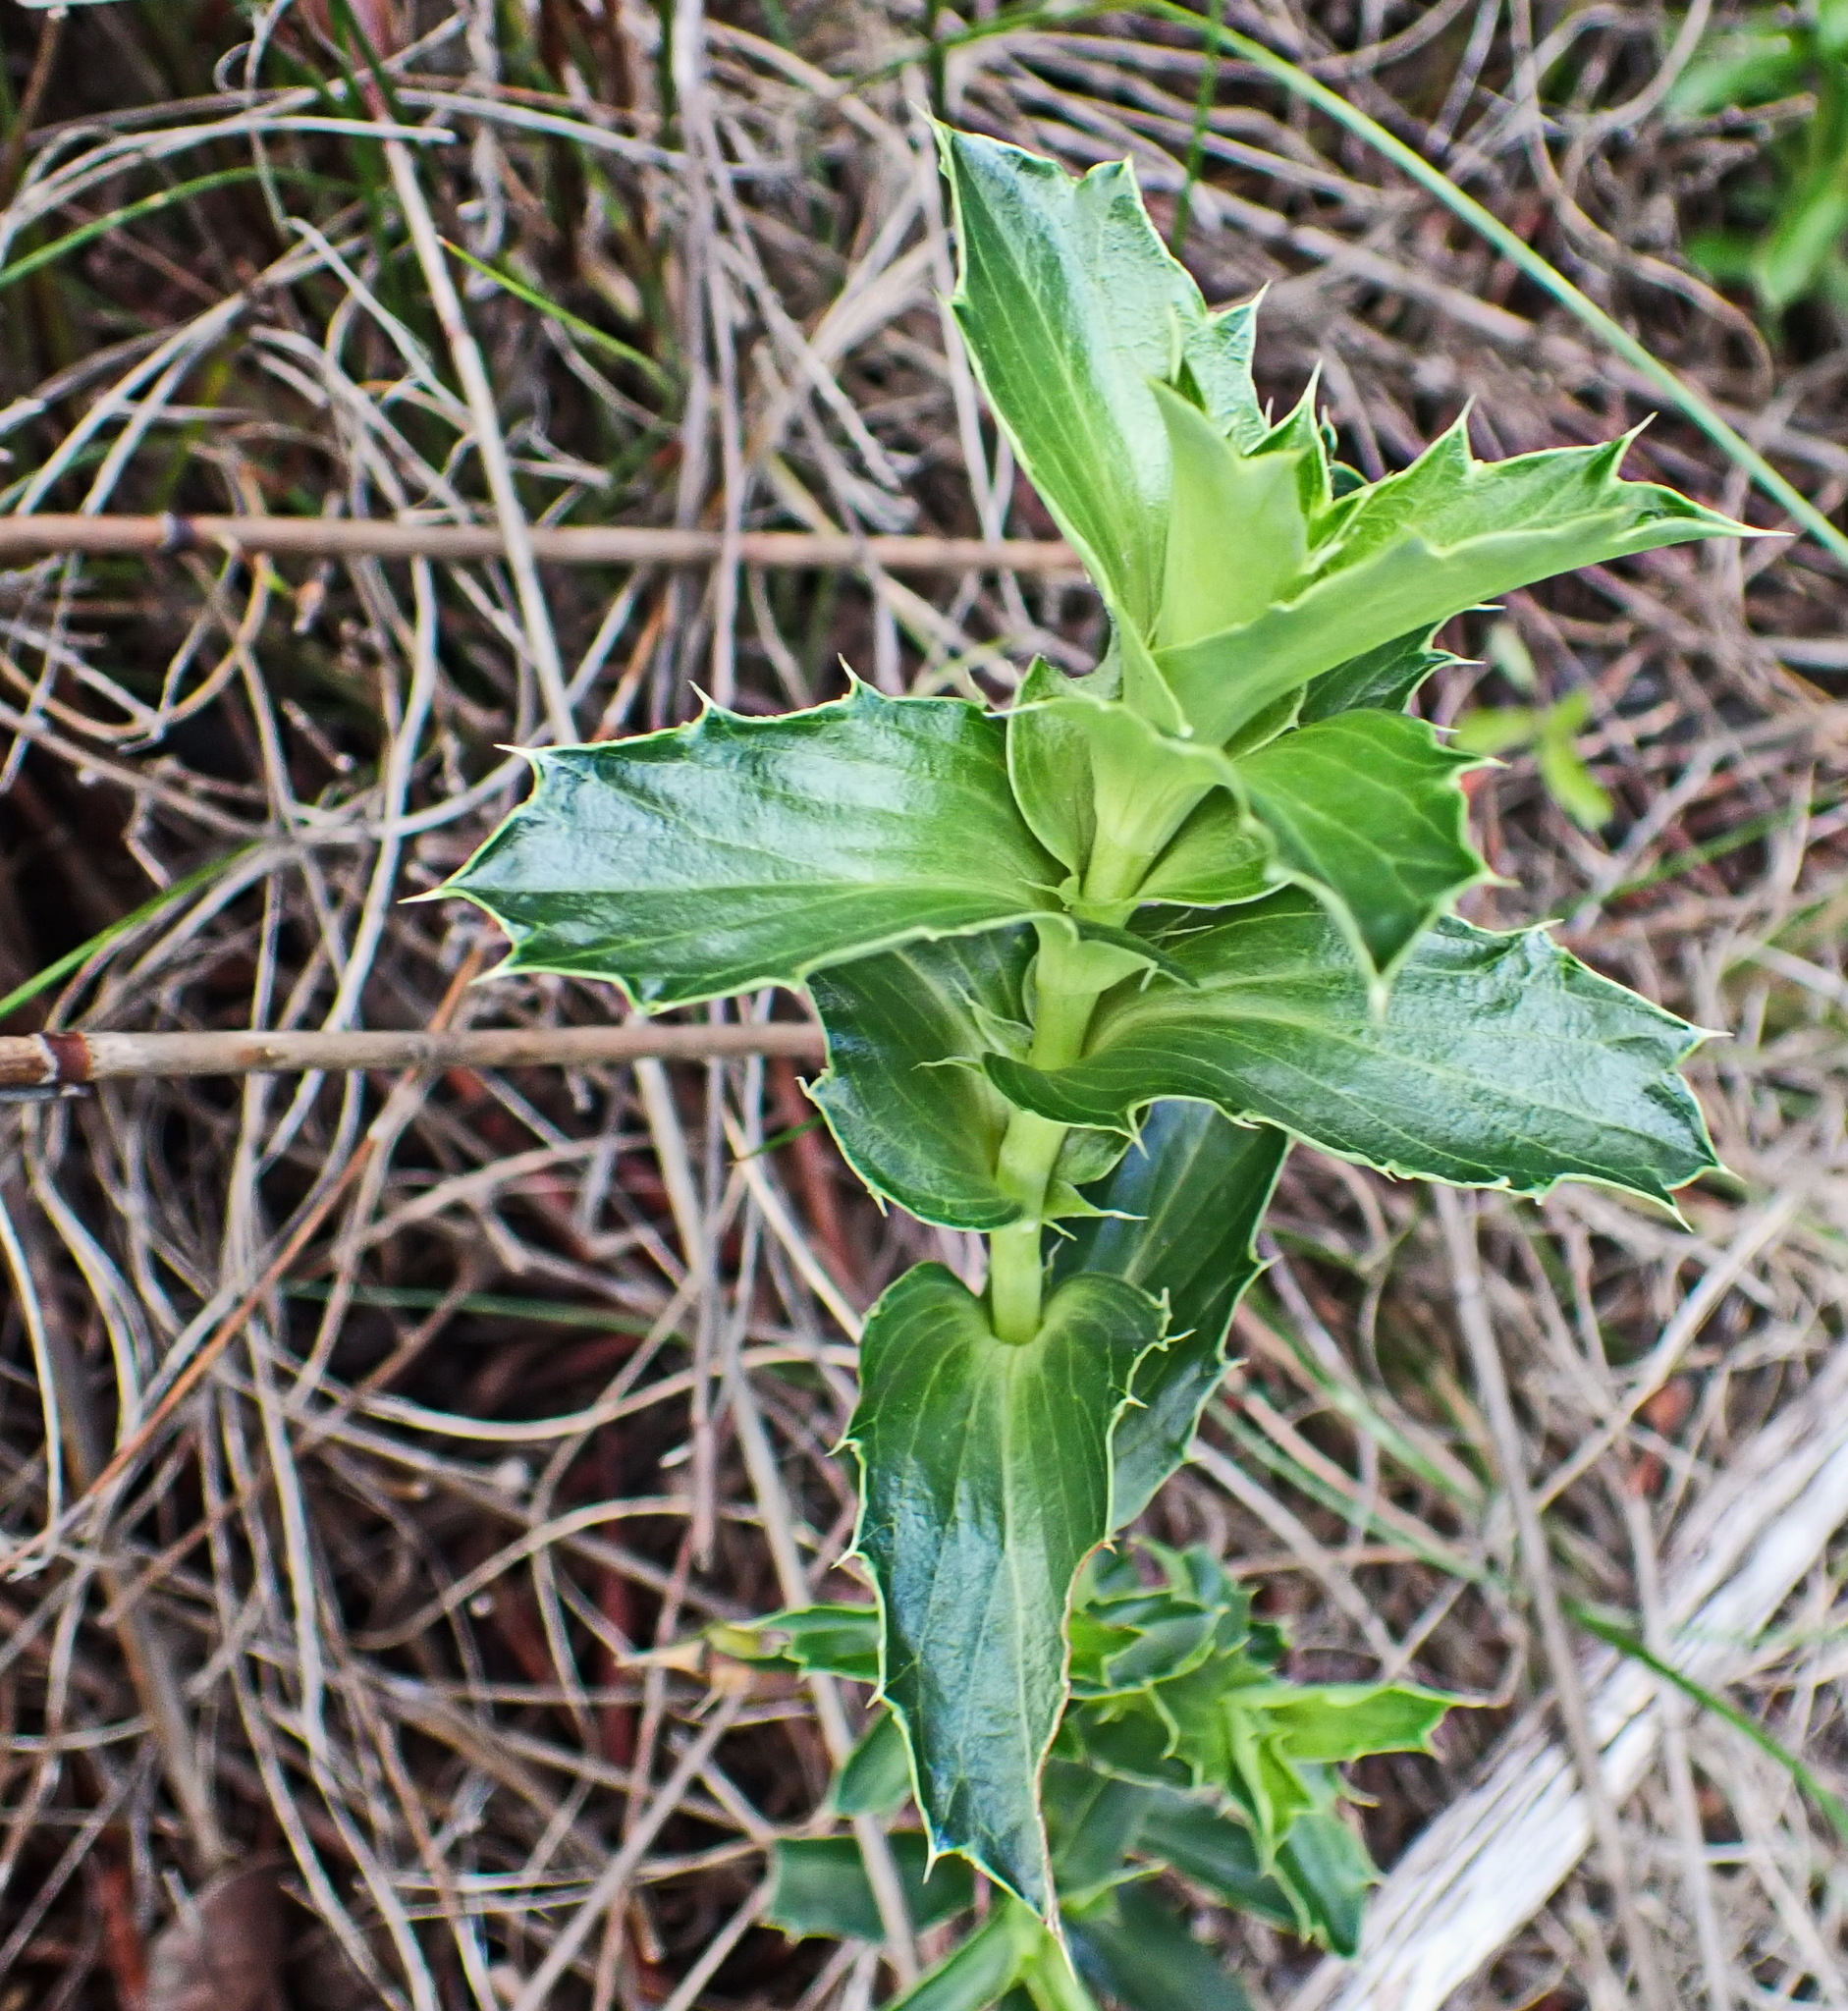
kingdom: Plantae
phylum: Tracheophyta
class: Magnoliopsida
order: Rosales
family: Rosaceae
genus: Cliffortia
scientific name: Cliffortia ilicifolia
